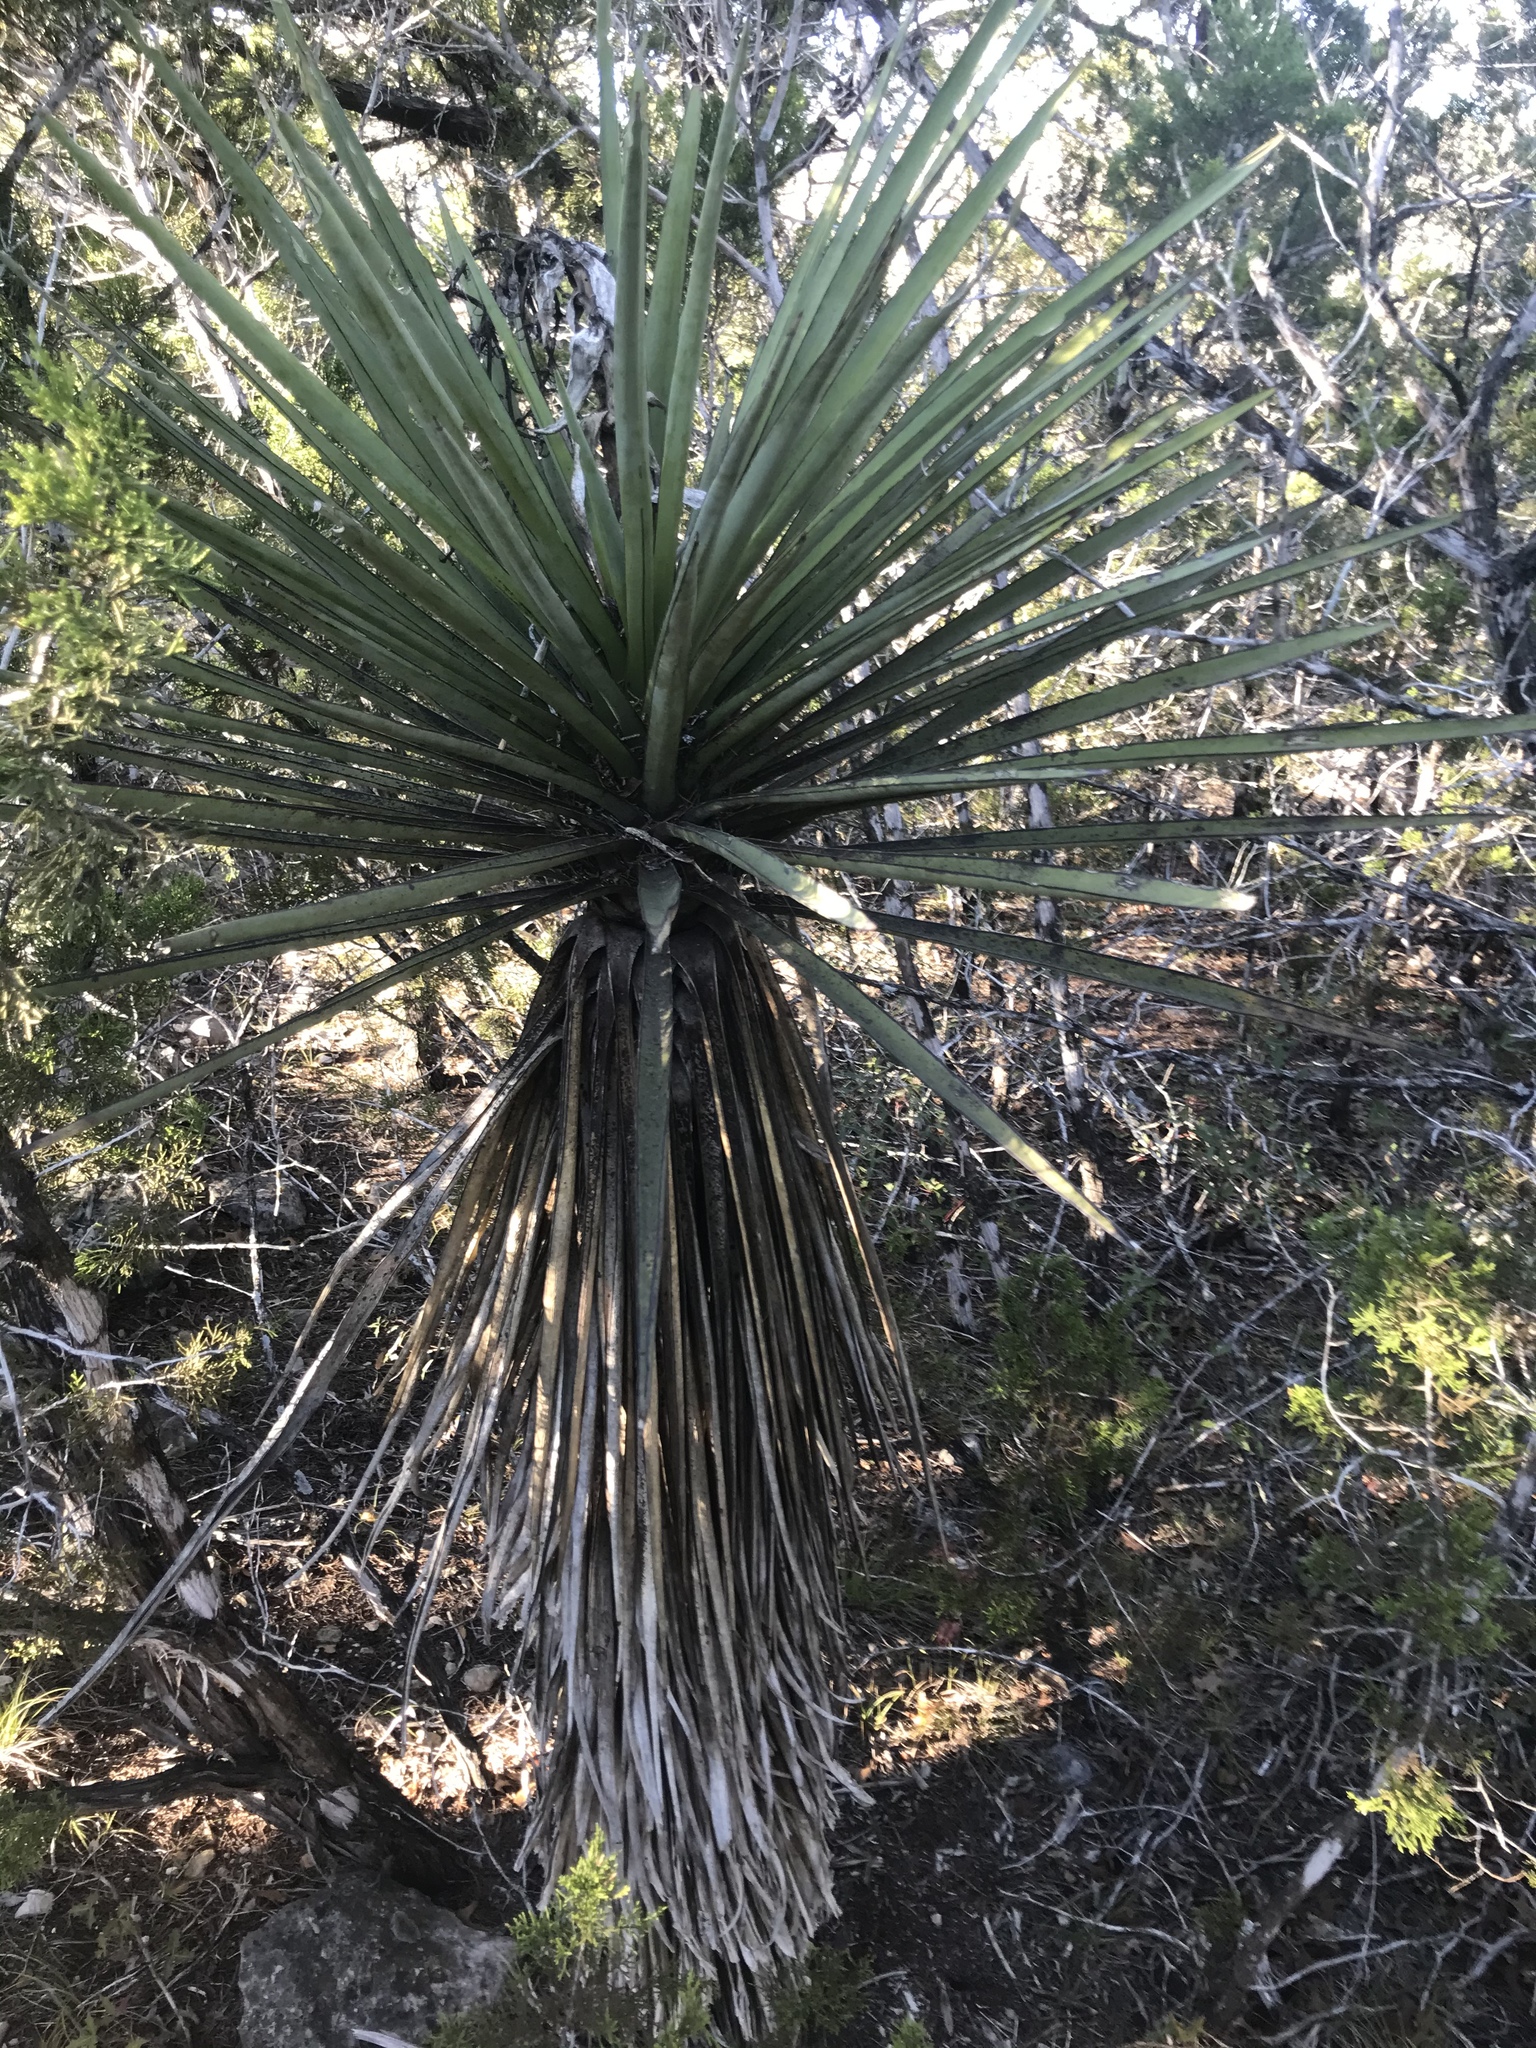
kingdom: Plantae
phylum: Tracheophyta
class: Liliopsida
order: Asparagales
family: Asparagaceae
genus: Yucca
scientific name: Yucca treculiana
